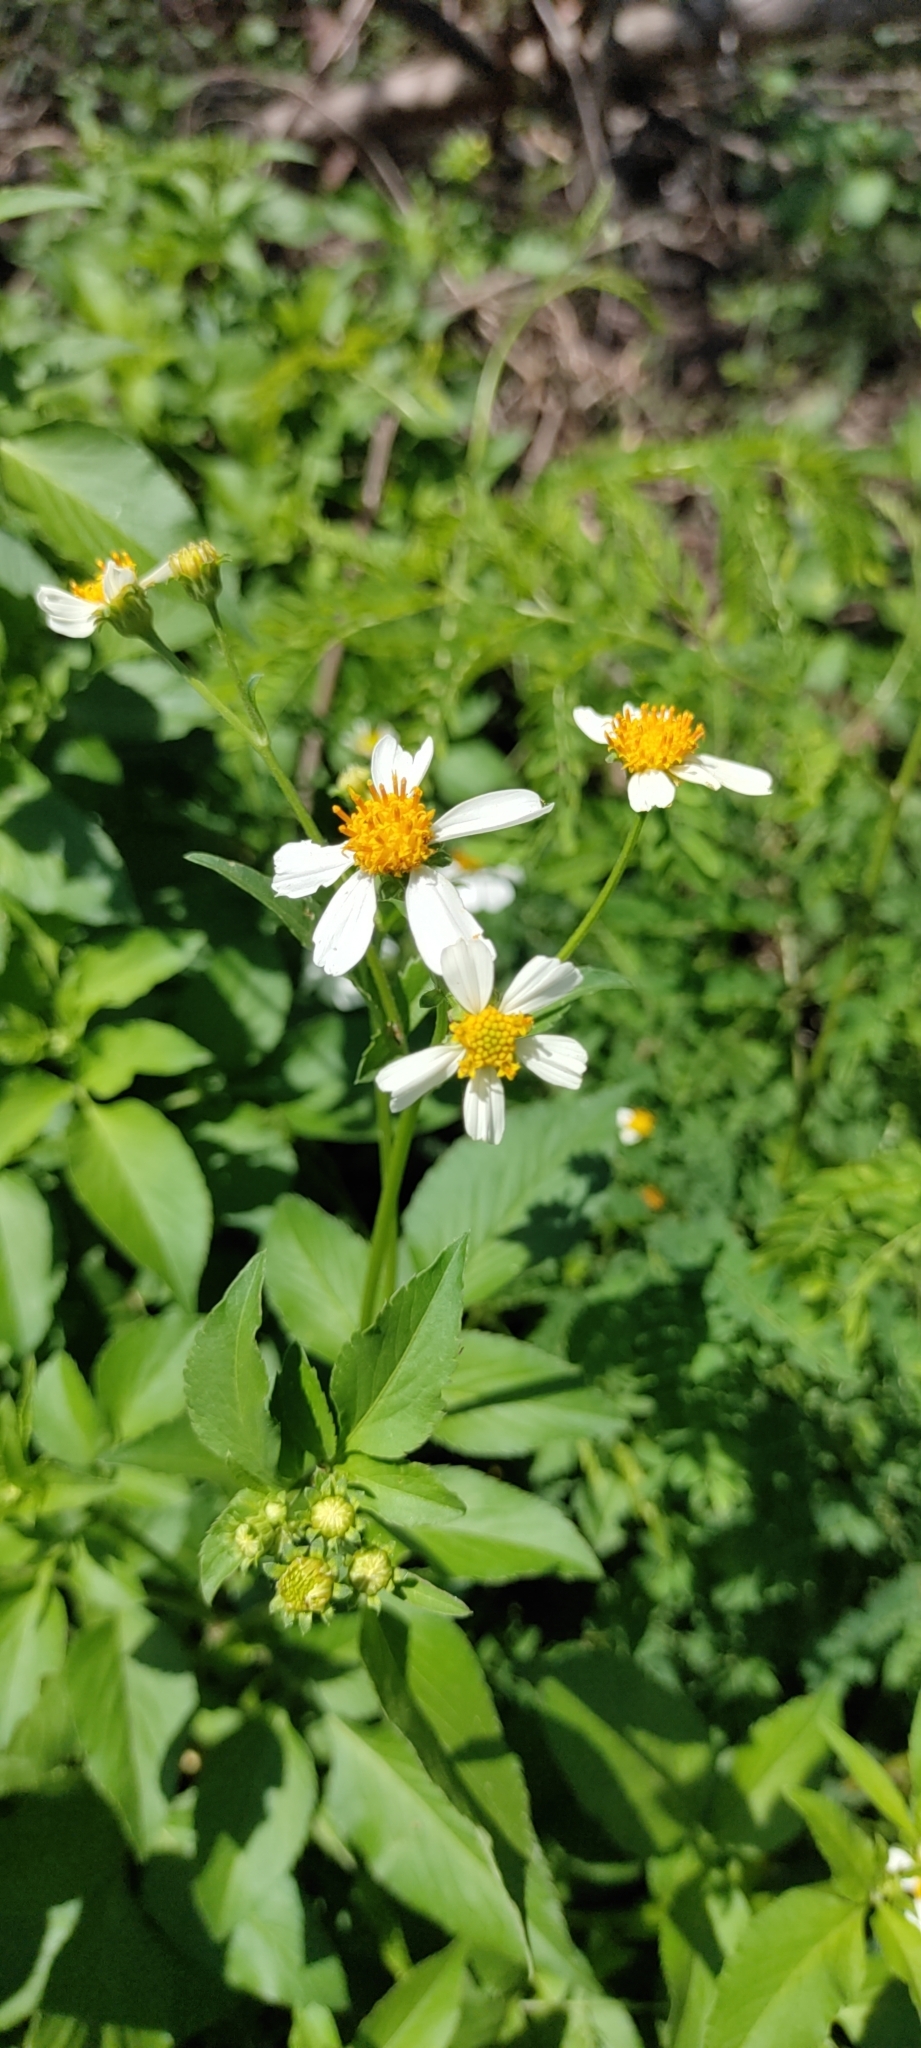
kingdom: Plantae
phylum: Tracheophyta
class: Magnoliopsida
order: Asterales
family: Asteraceae
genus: Bidens
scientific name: Bidens alba
